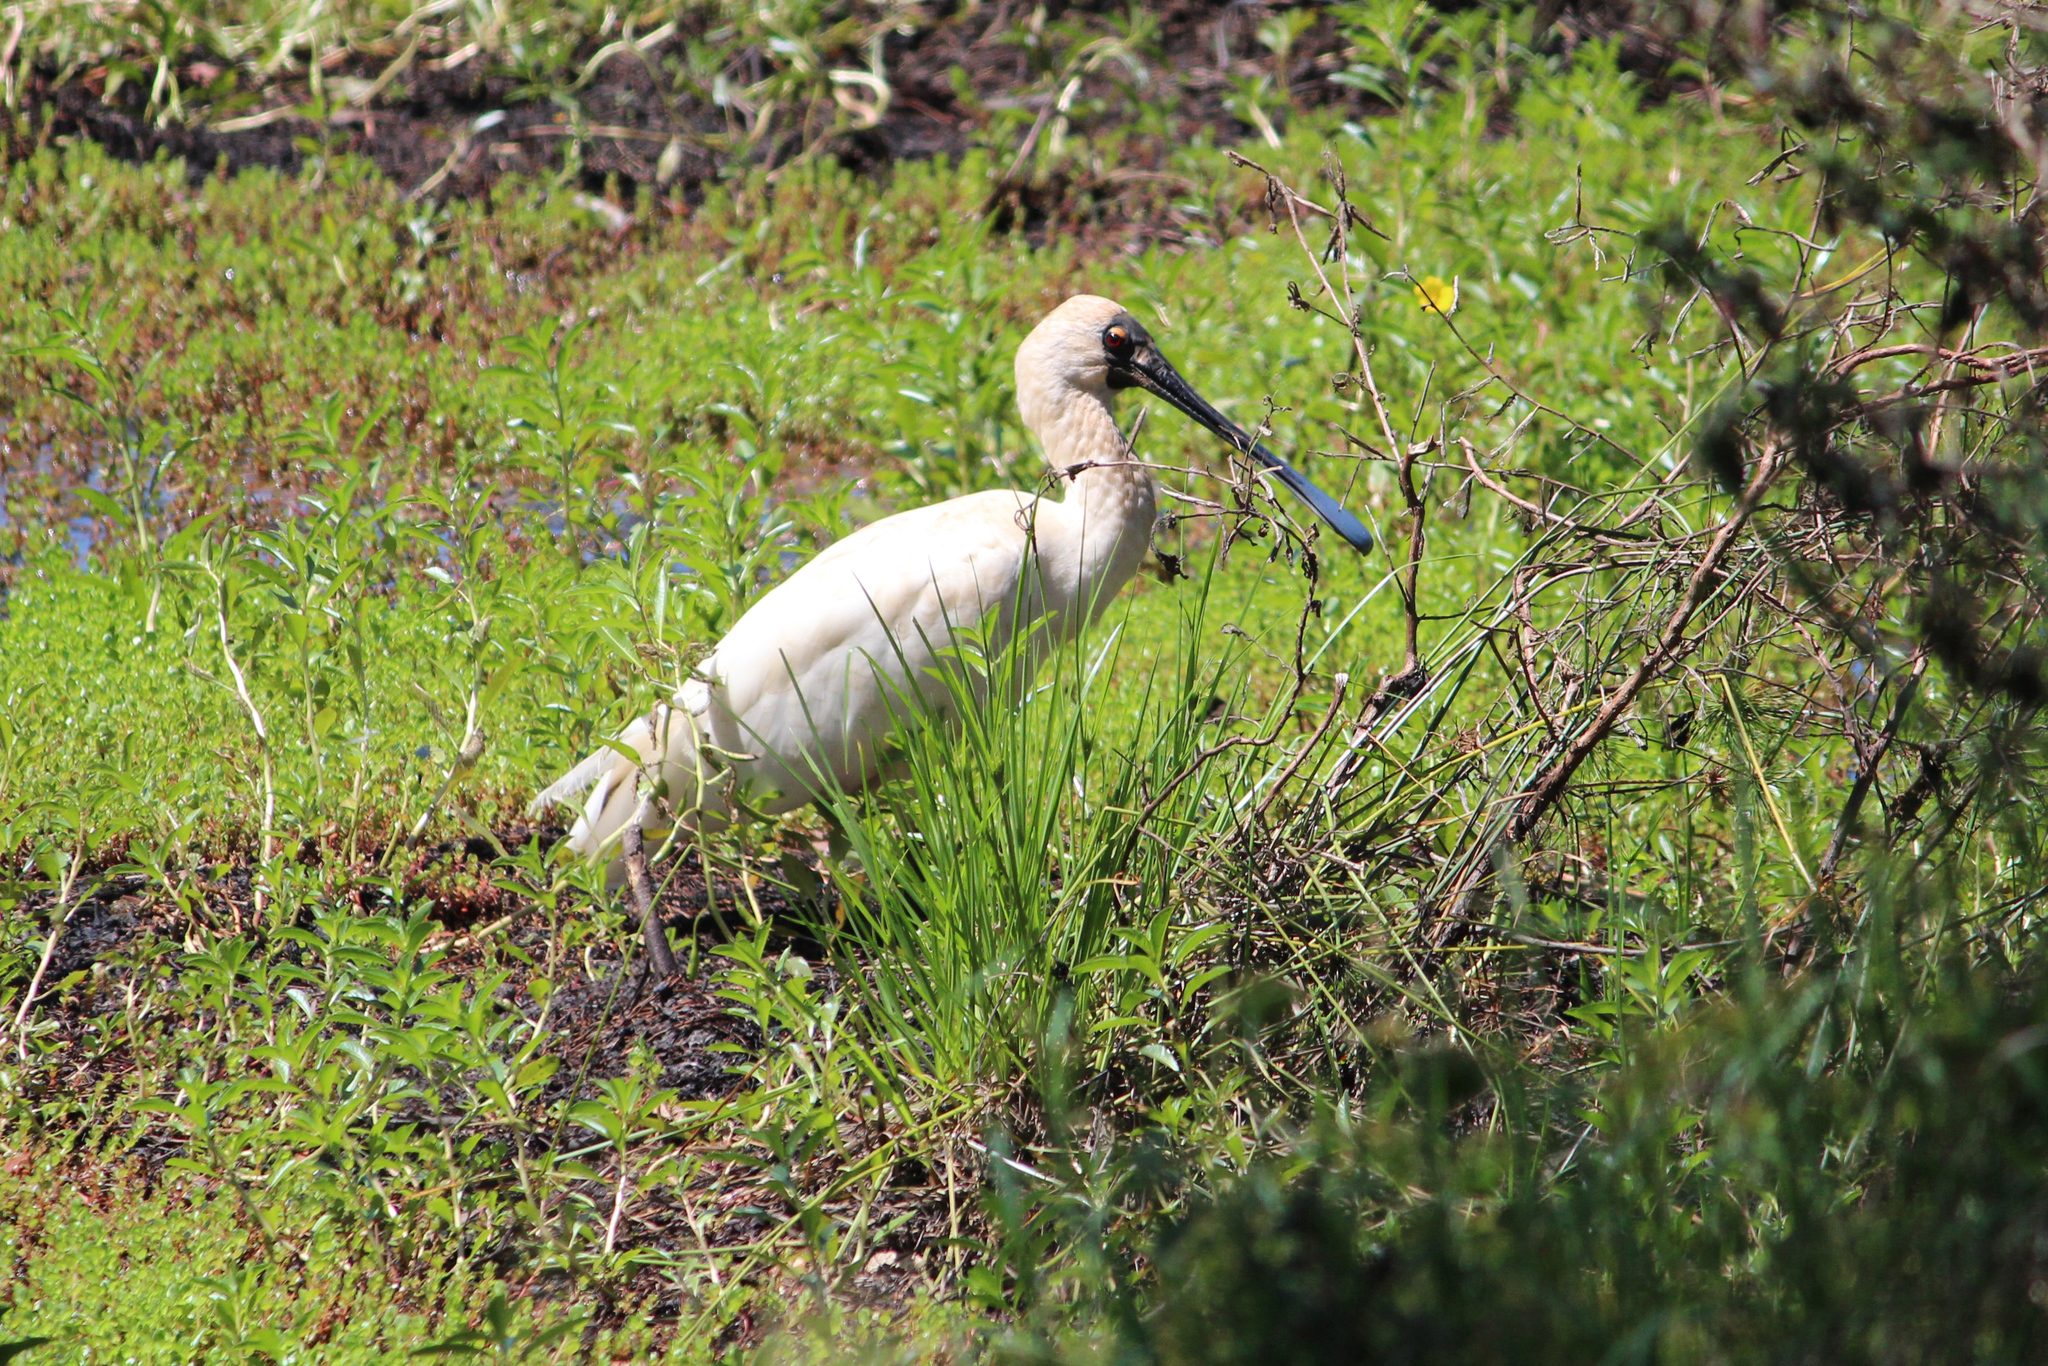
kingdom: Animalia
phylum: Chordata
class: Aves
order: Pelecaniformes
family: Threskiornithidae
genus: Platalea
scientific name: Platalea regia
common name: Royal spoonbill
